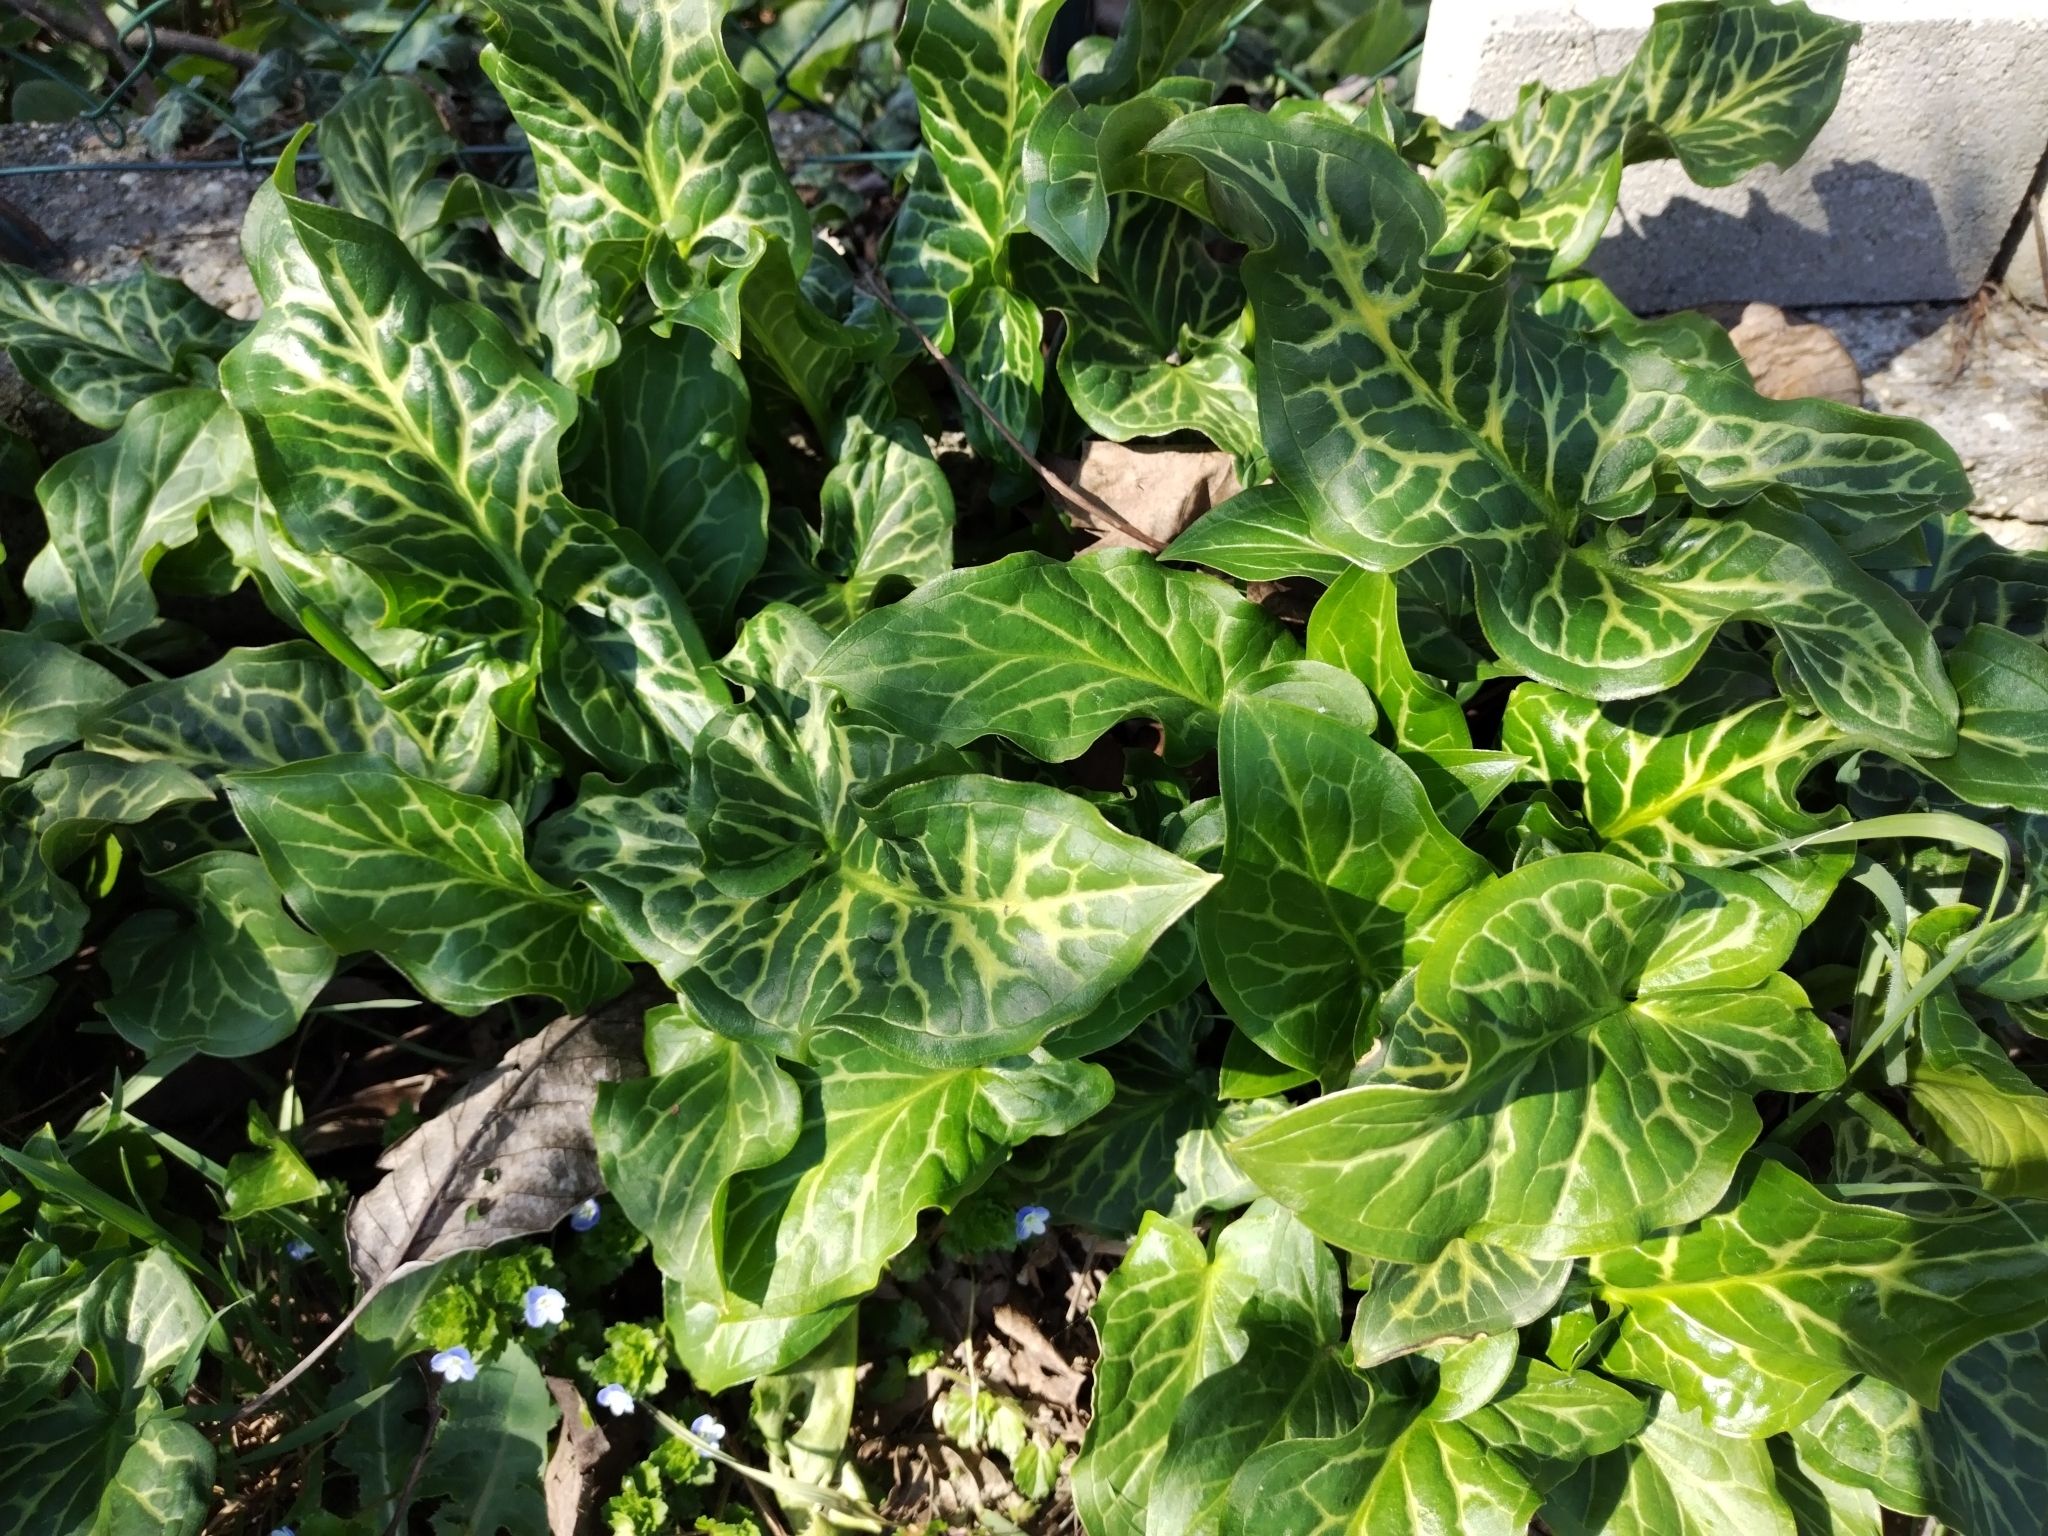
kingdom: Plantae
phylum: Tracheophyta
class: Liliopsida
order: Alismatales
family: Araceae
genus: Arum
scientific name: Arum italicum
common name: Italian lords-and-ladies
